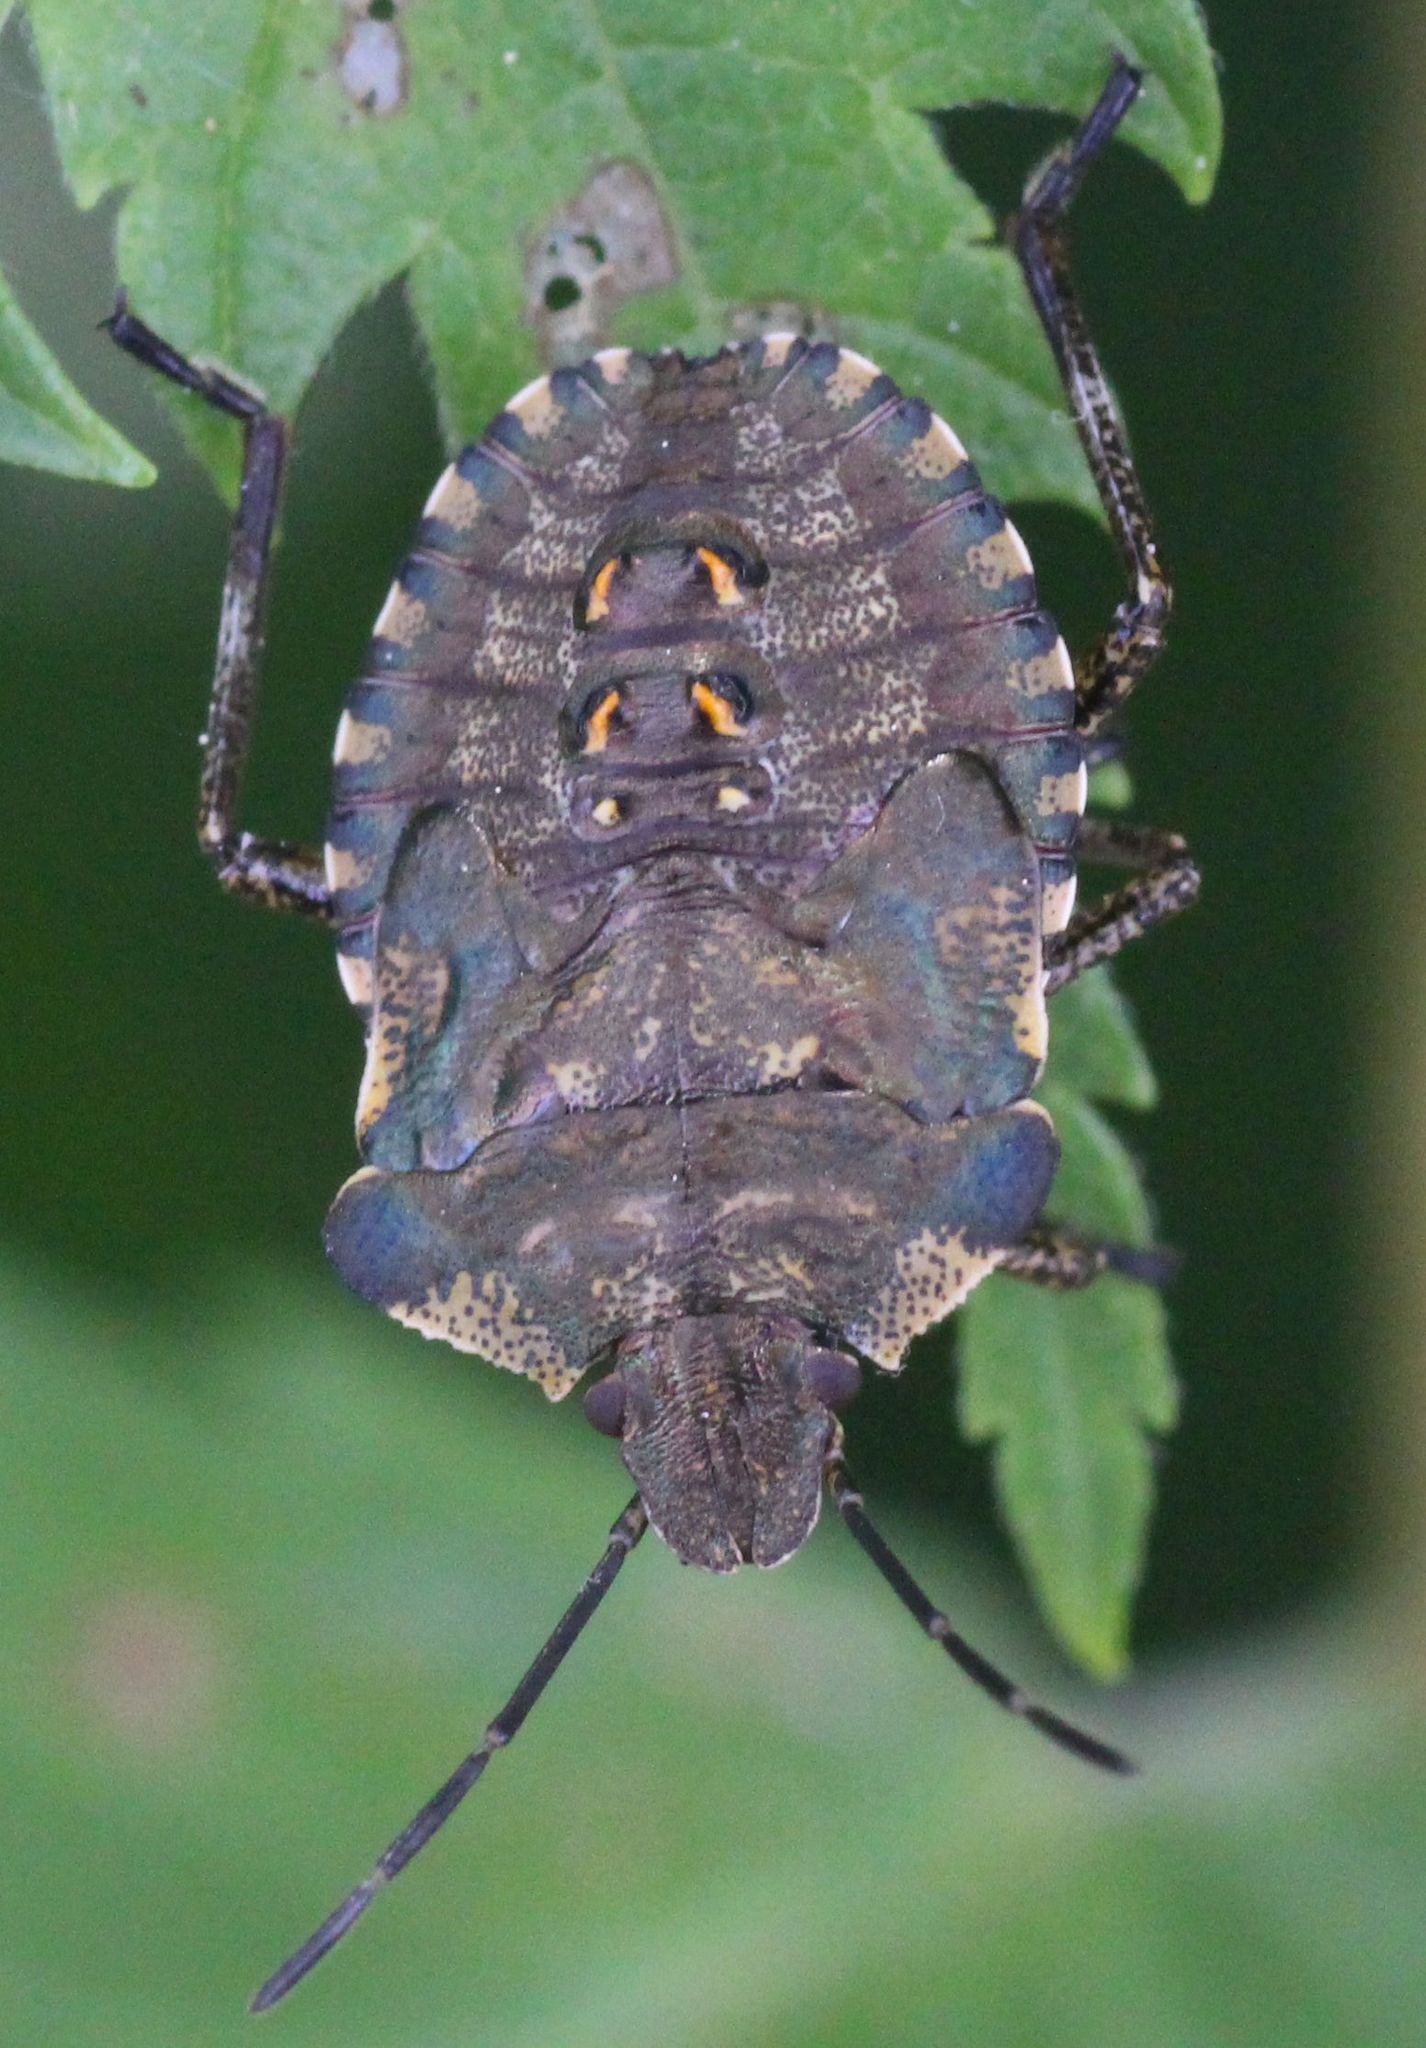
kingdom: Animalia
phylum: Arthropoda
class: Insecta
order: Hemiptera
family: Pentatomidae
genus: Pentatoma
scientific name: Pentatoma rufipes
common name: Forest bug
